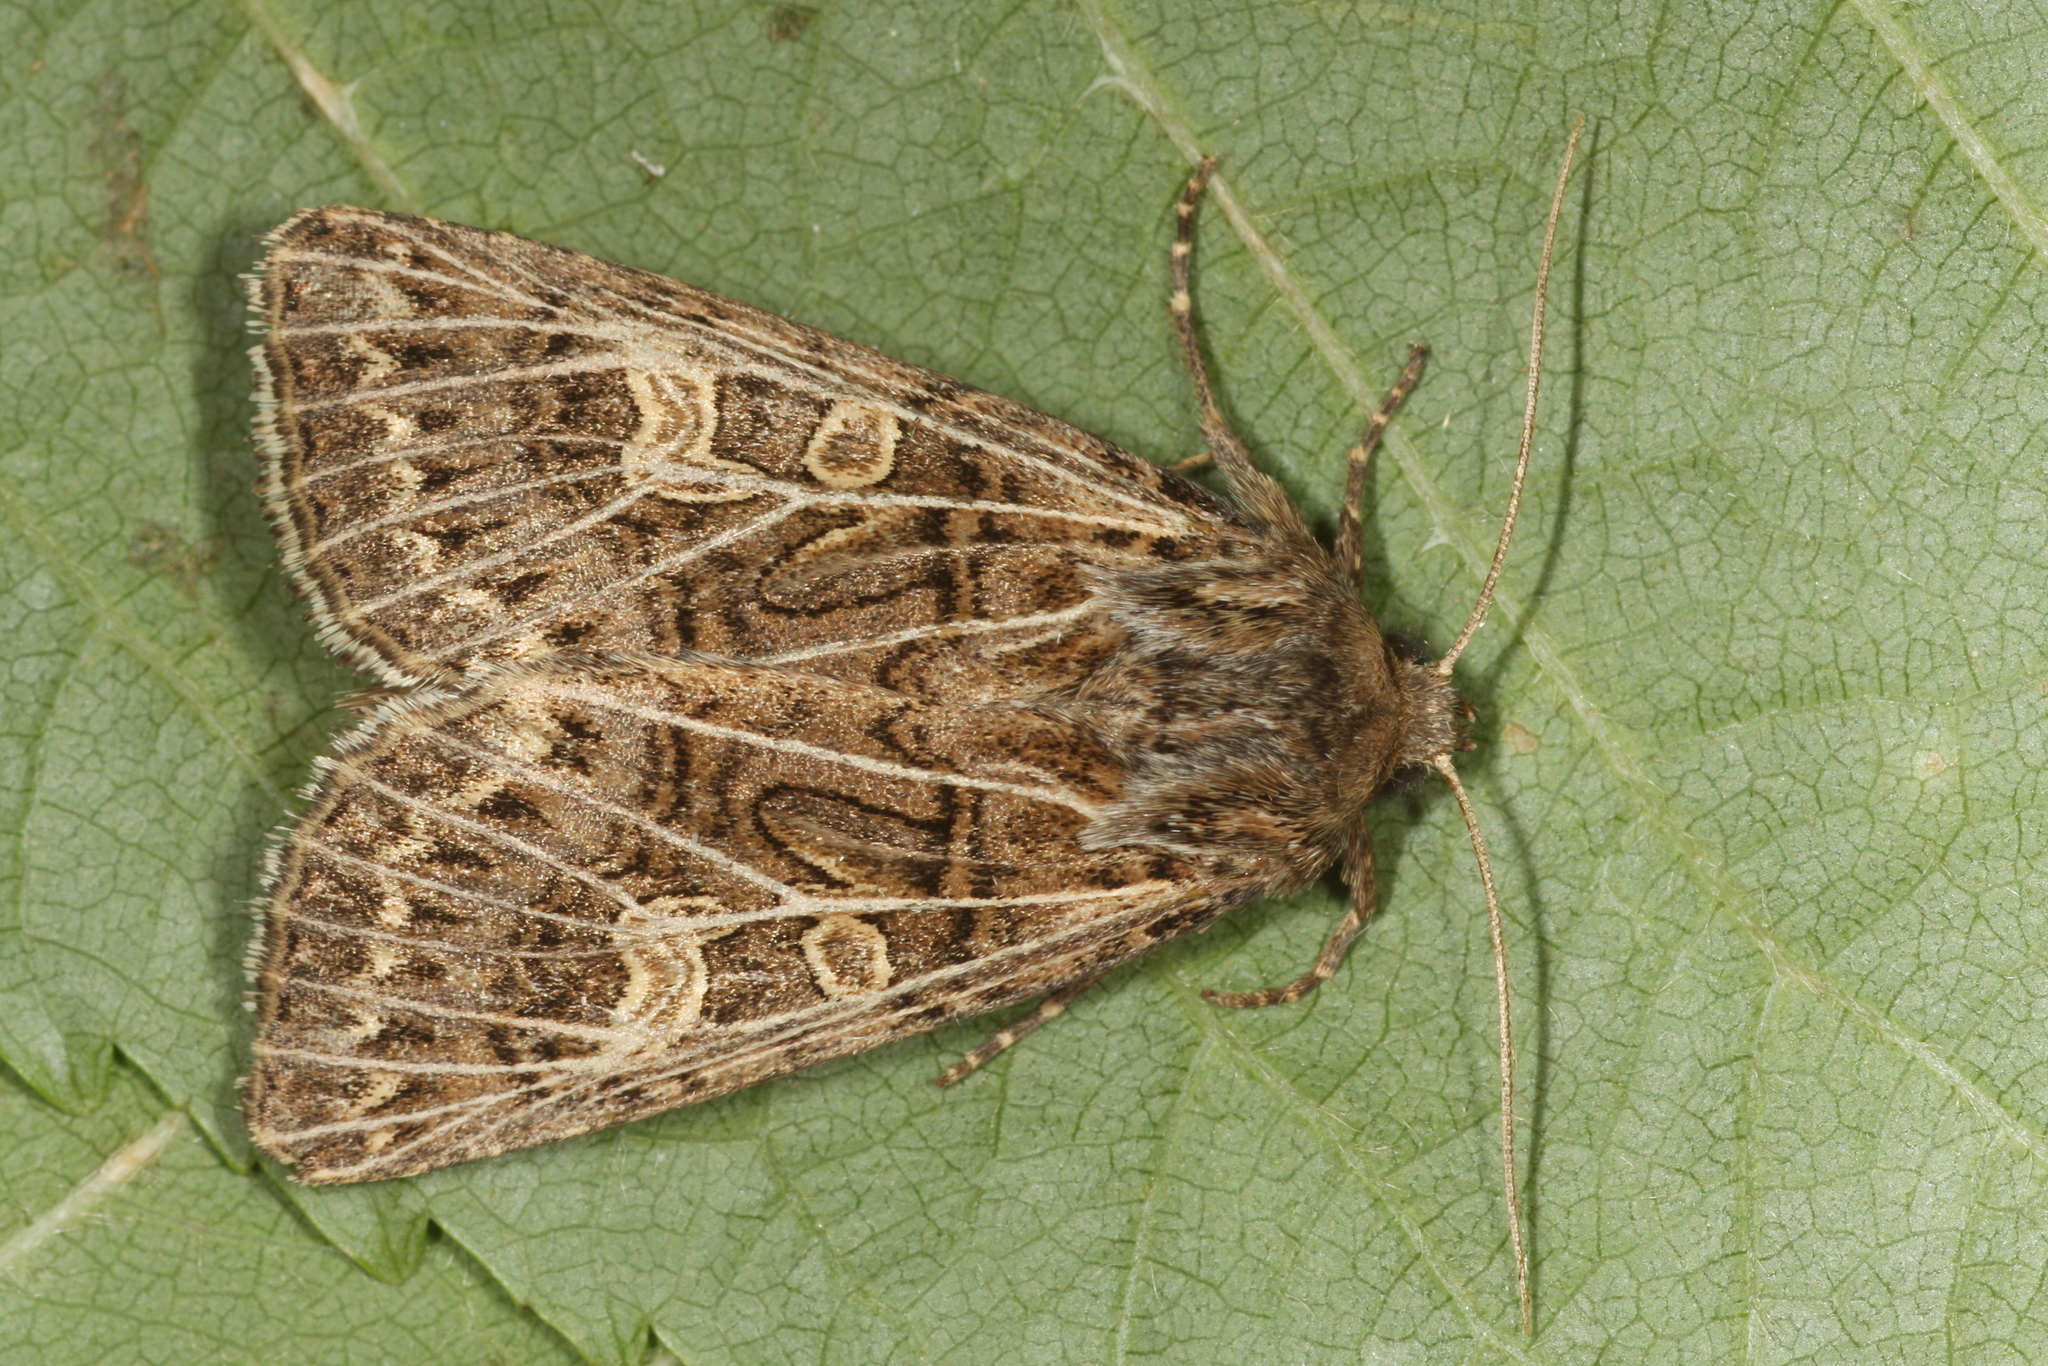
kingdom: Animalia
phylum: Arthropoda
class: Insecta
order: Lepidoptera
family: Noctuidae
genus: Tholera
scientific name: Tholera decimalis
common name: Feathered gothic
